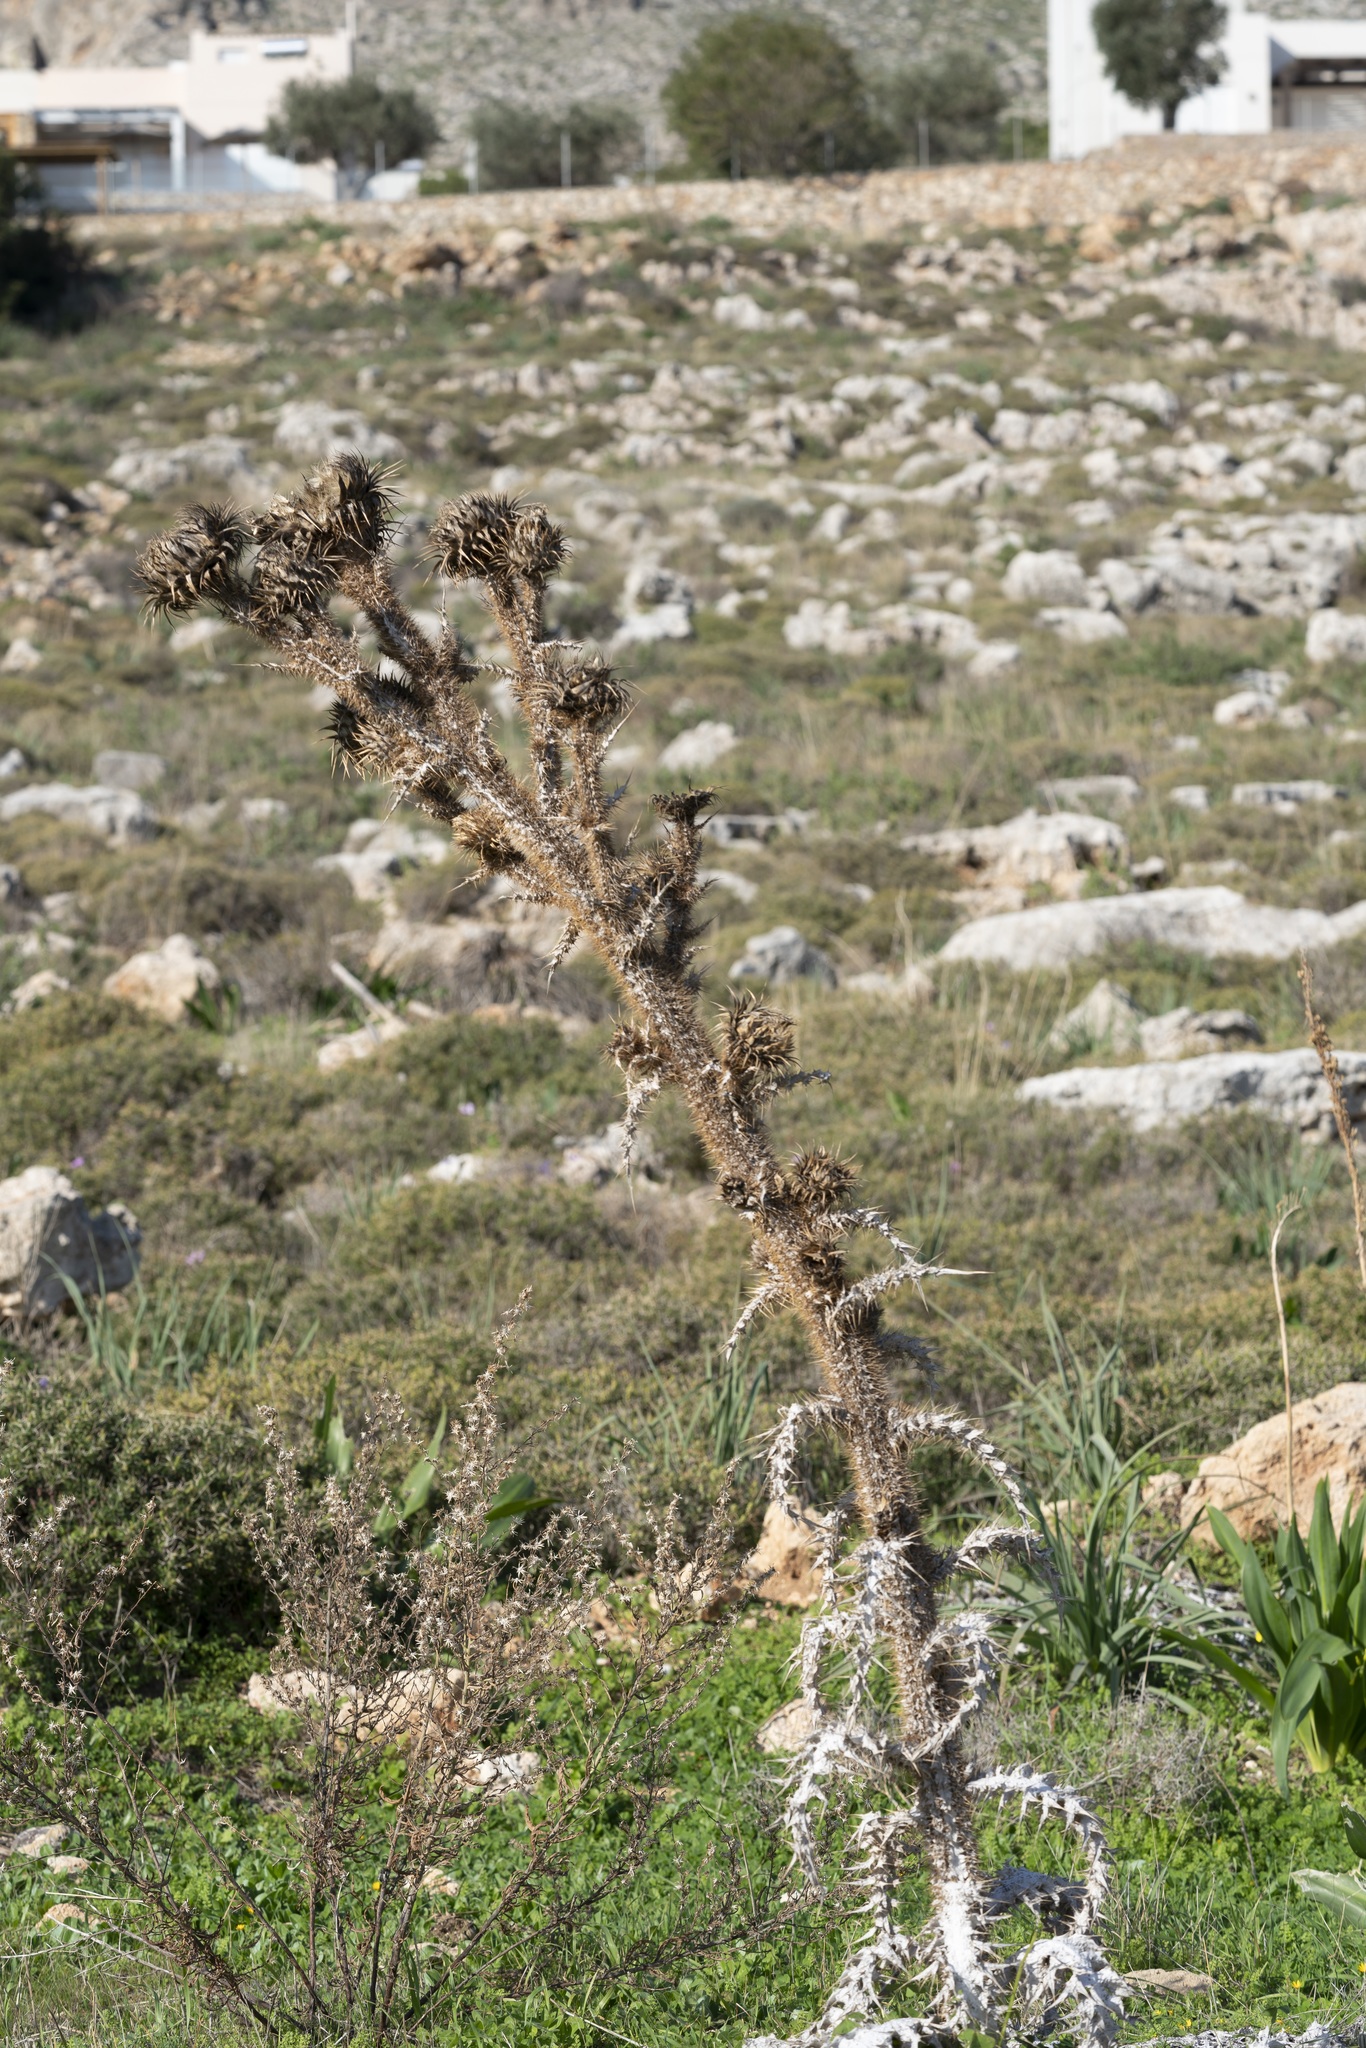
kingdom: Plantae
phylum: Tracheophyta
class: Magnoliopsida
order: Asterales
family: Asteraceae
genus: Onopordum
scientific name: Onopordum bracteatum
